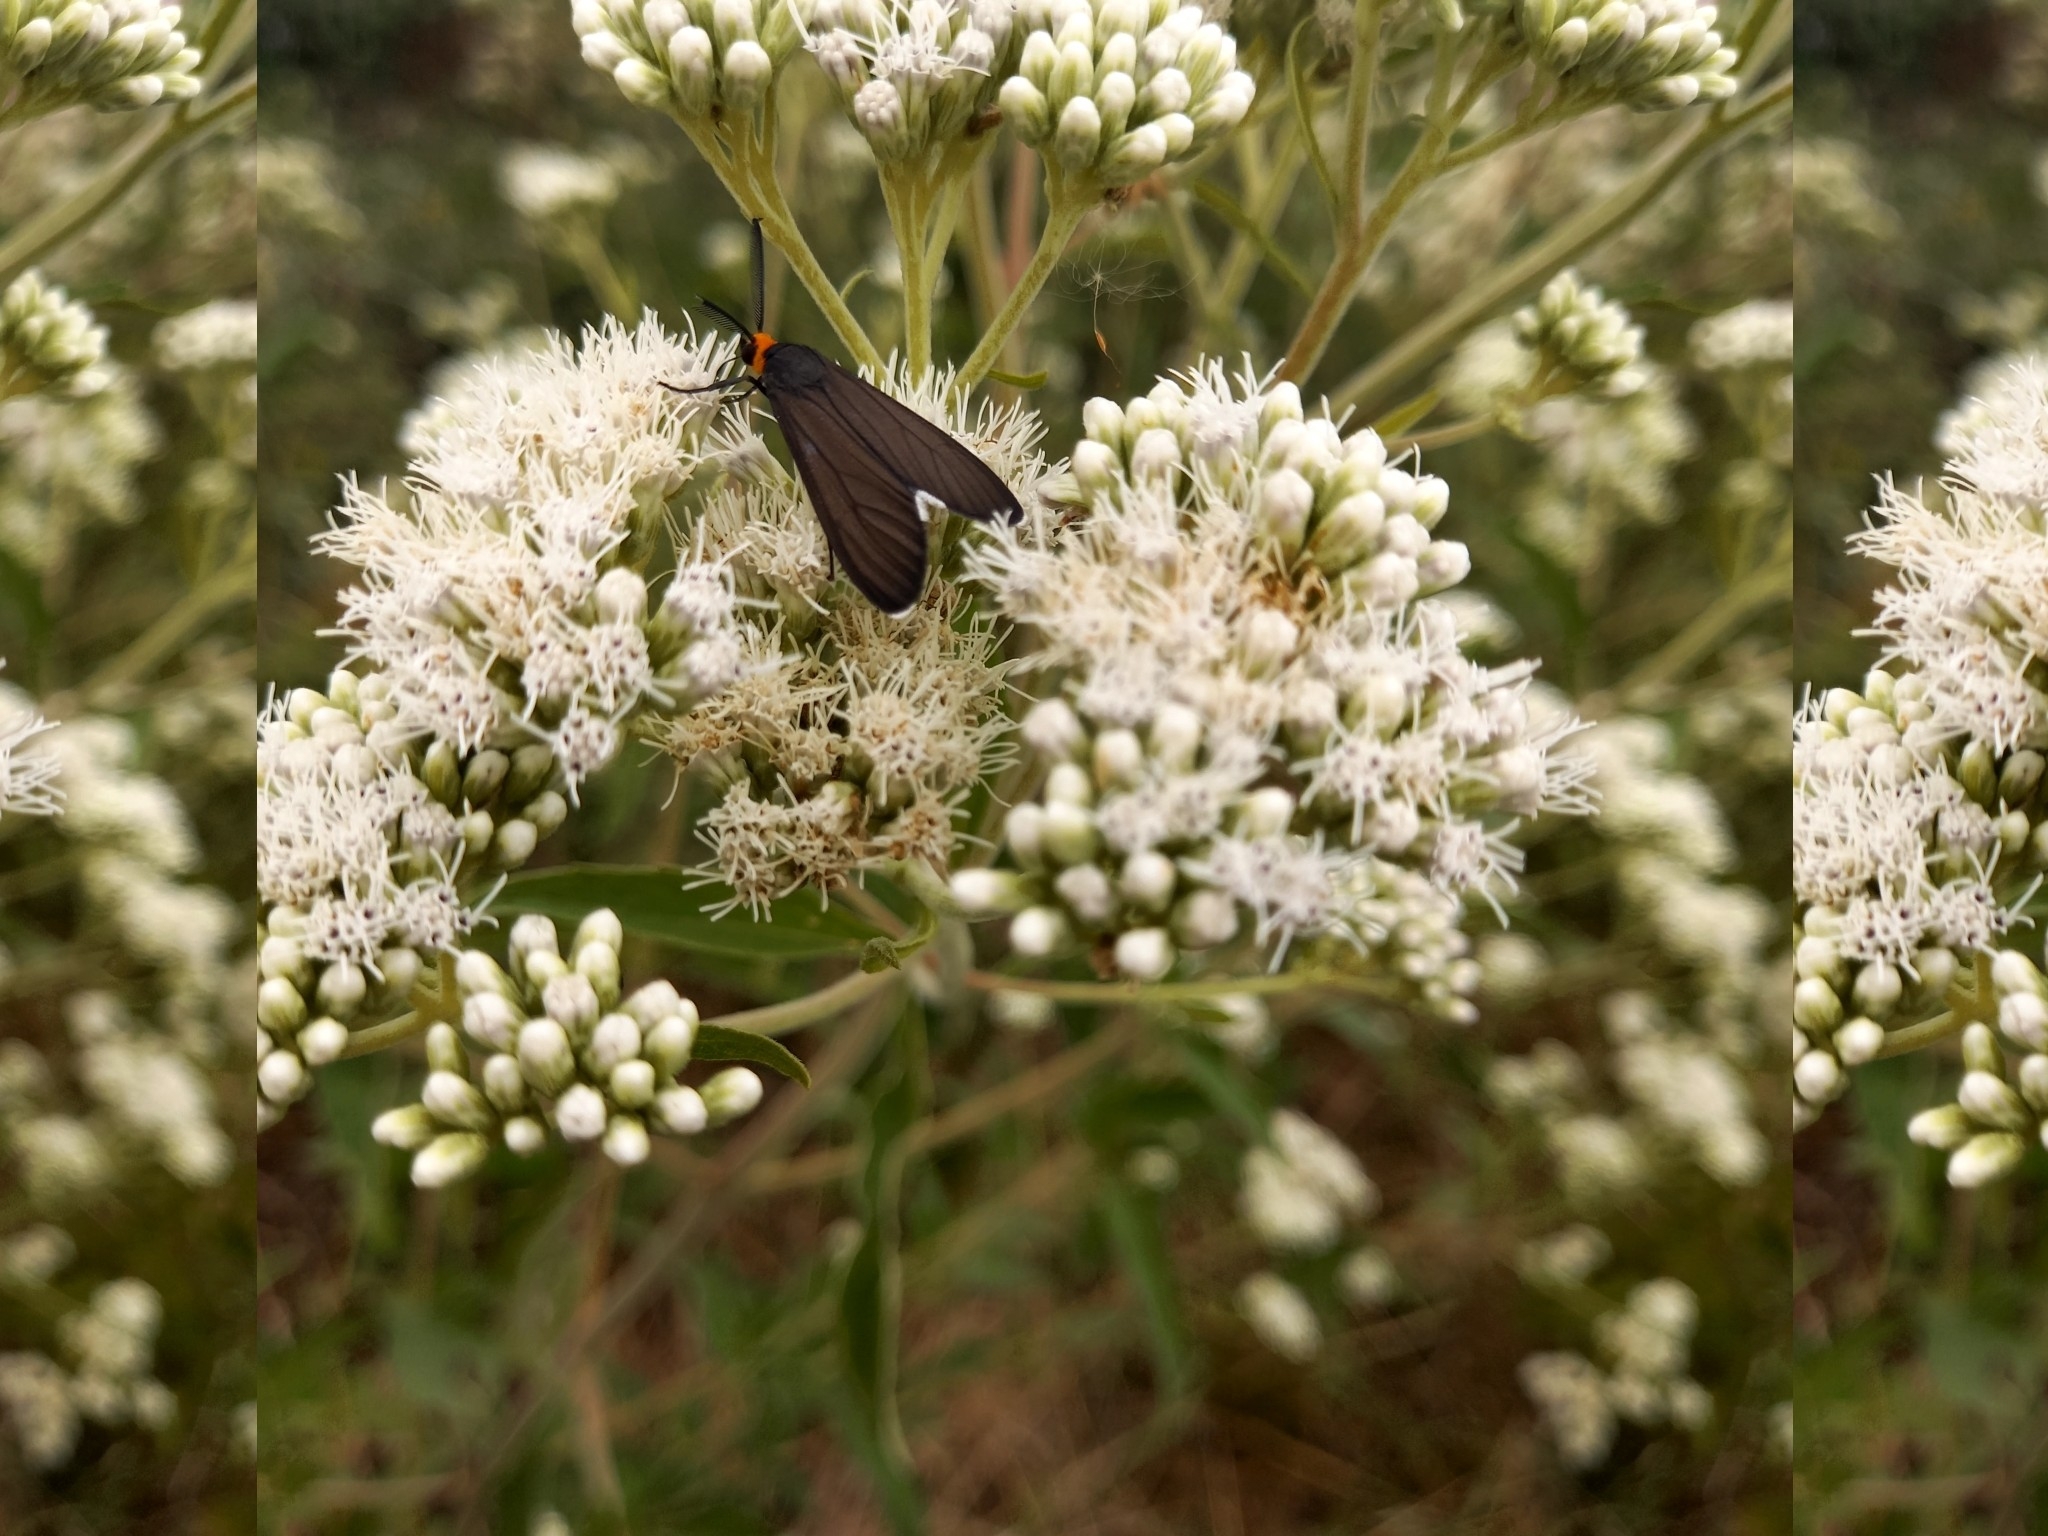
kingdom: Animalia
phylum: Arthropoda
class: Insecta
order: Lepidoptera
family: Erebidae
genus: Ctenucha
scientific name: Ctenucha rubriceps
